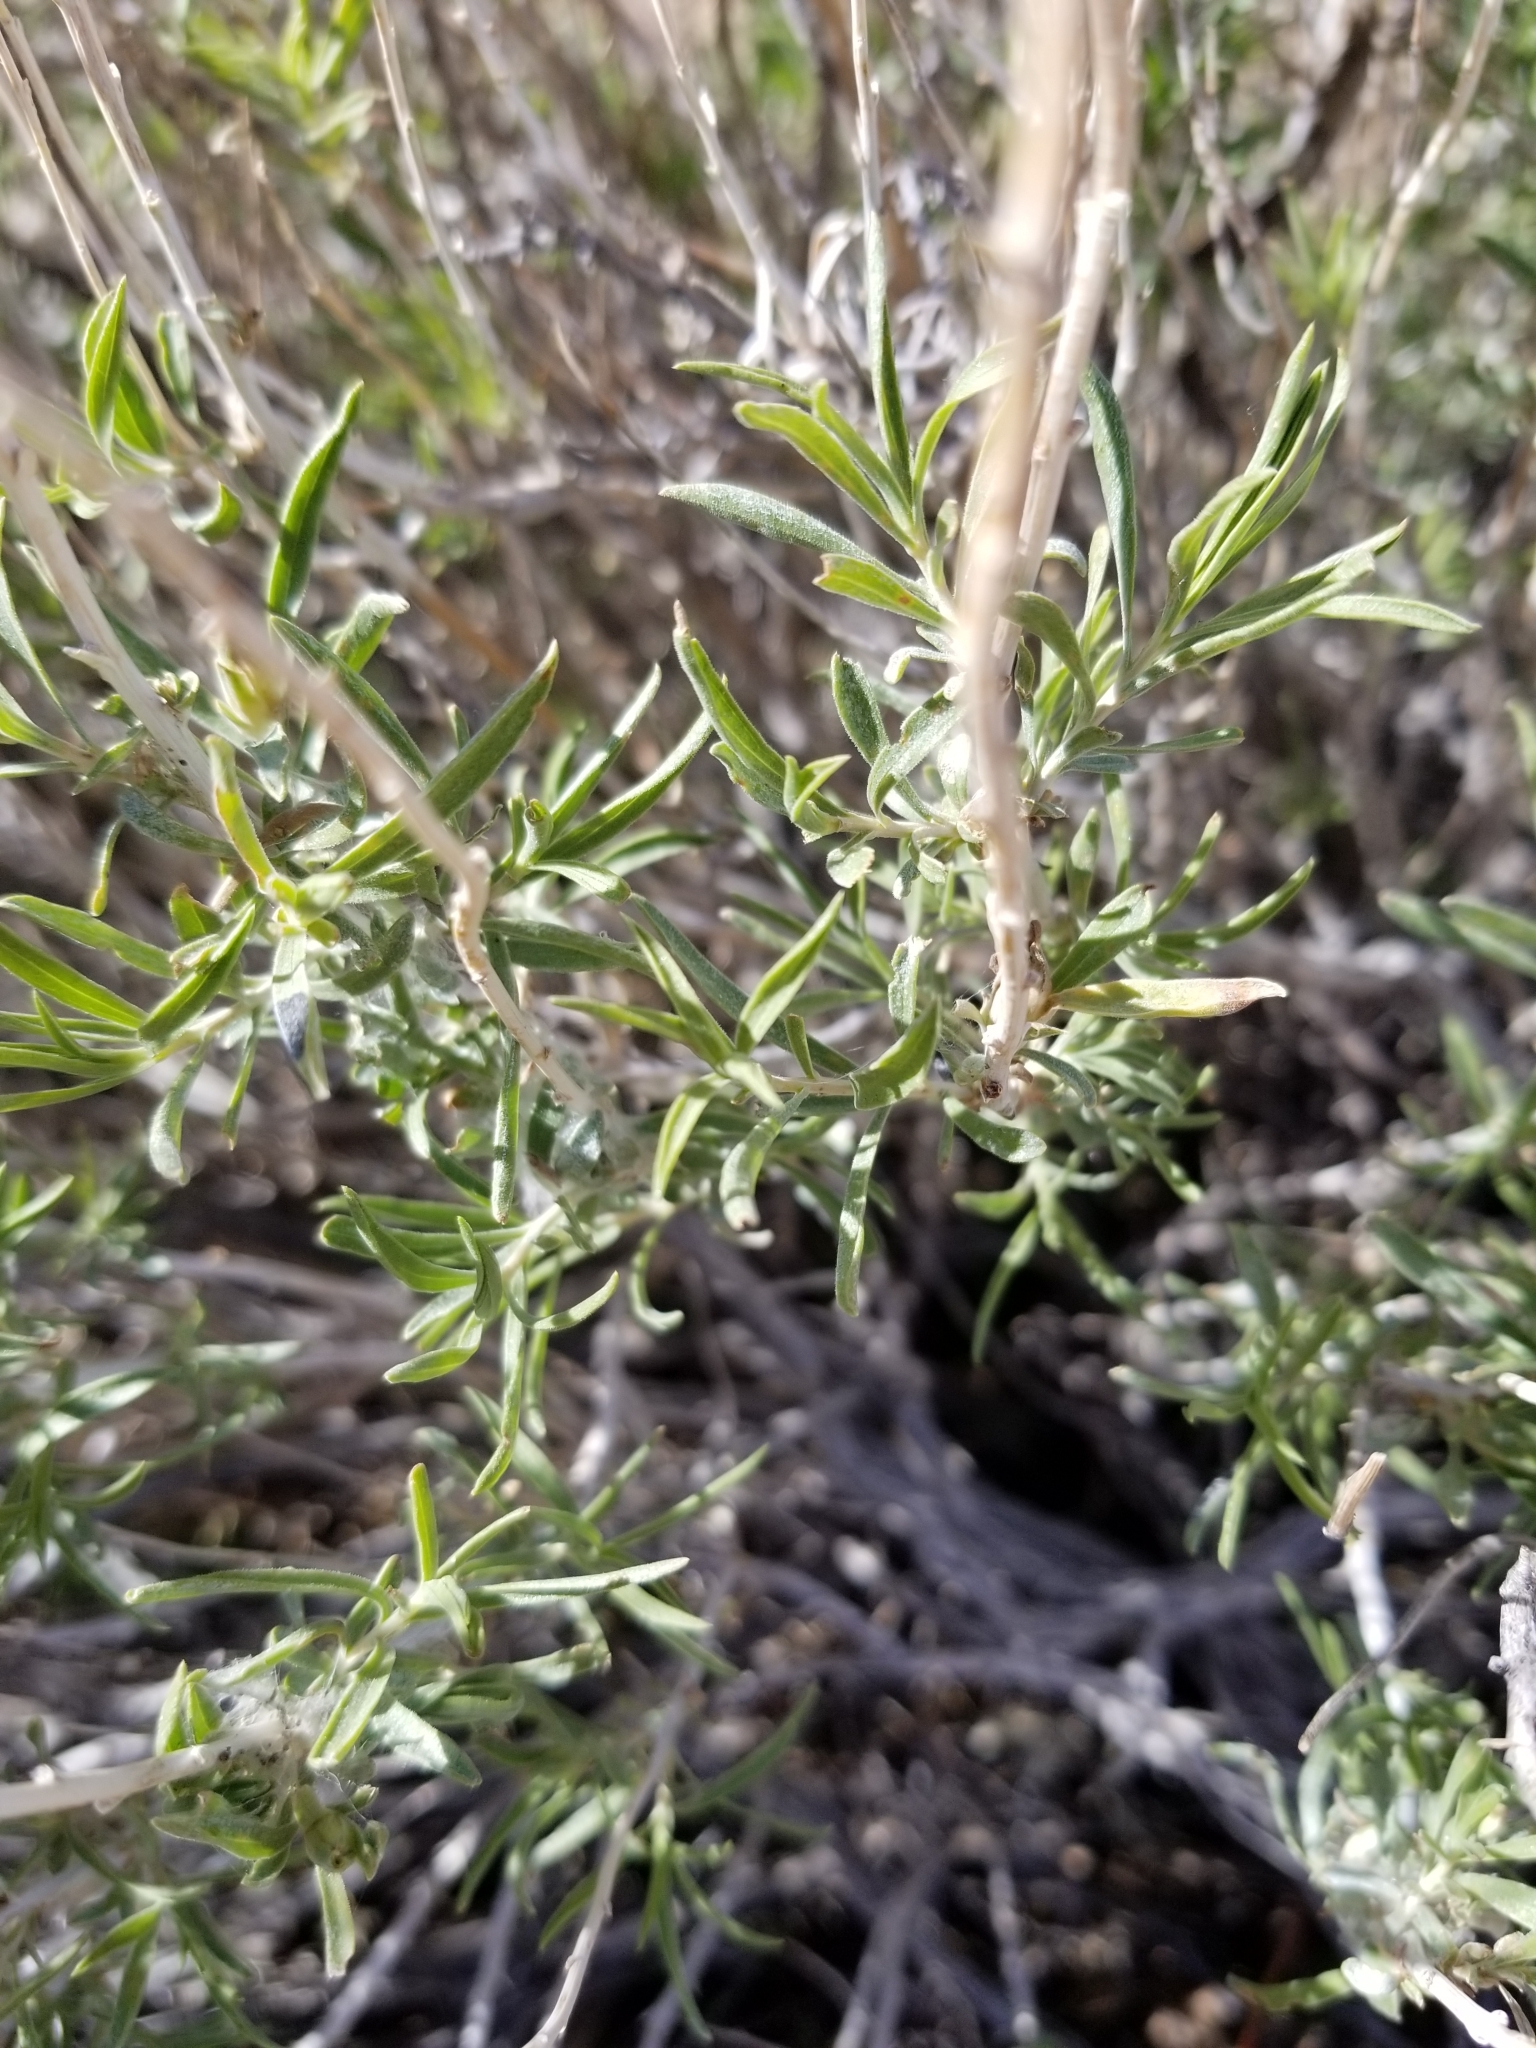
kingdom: Plantae
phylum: Tracheophyta
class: Magnoliopsida
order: Asterales
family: Asteraceae
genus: Chrysothamnus
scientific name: Chrysothamnus viscidiflorus
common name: Yellow rabbitbrush
